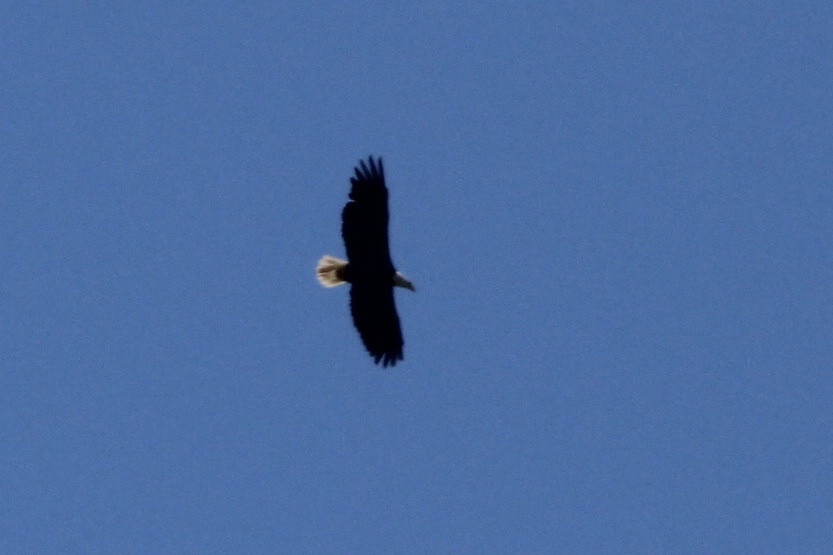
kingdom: Animalia
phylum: Chordata
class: Aves
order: Accipitriformes
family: Accipitridae
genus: Haliaeetus
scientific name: Haliaeetus leucocephalus
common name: Bald eagle
